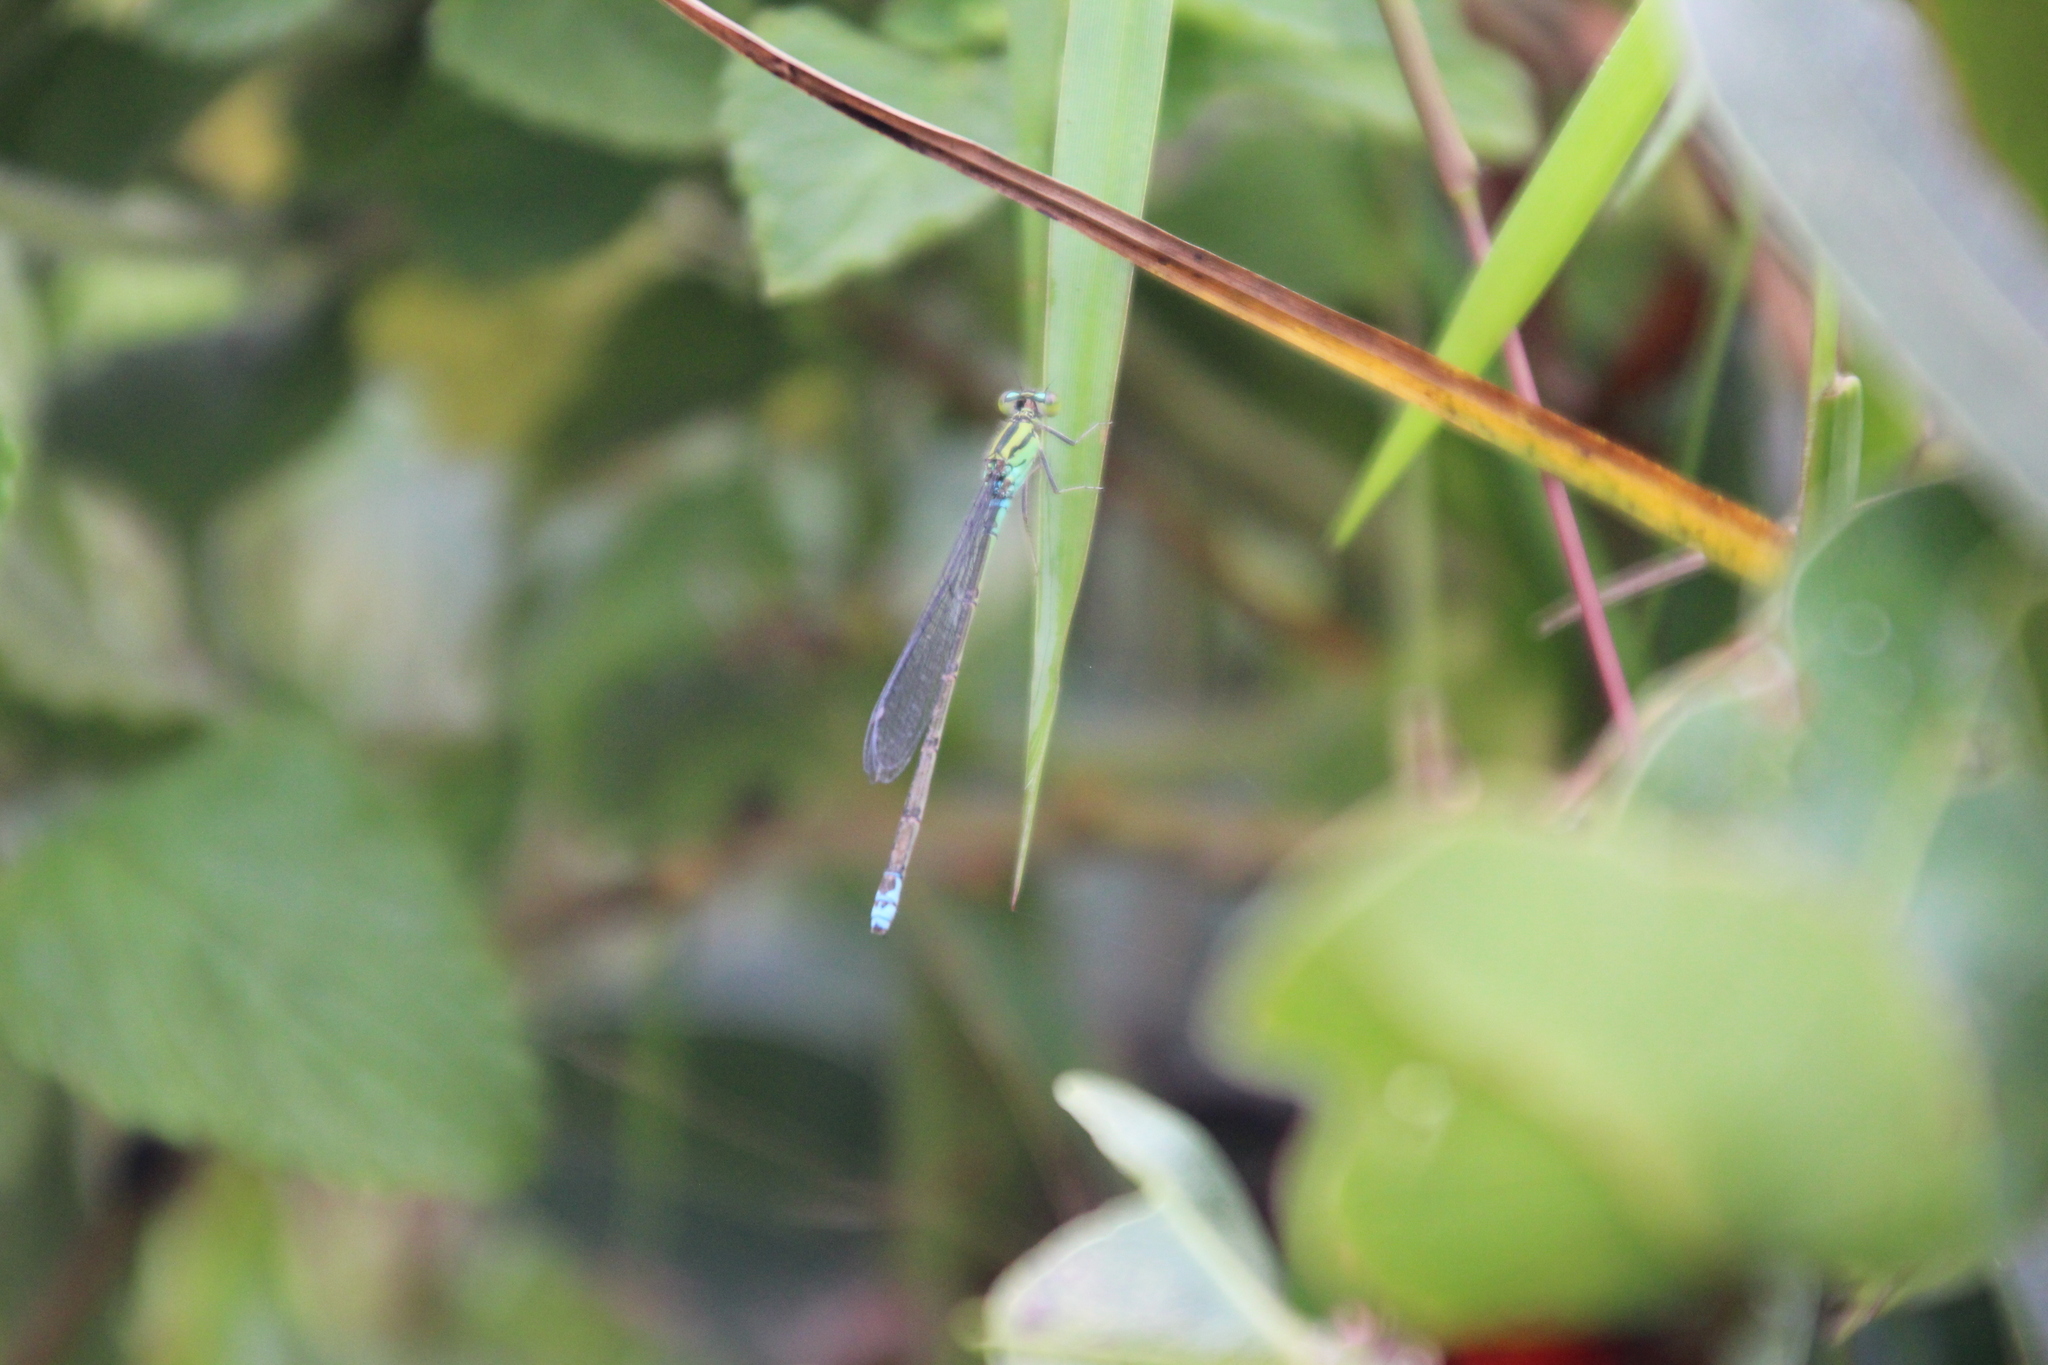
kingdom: Animalia
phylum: Arthropoda
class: Insecta
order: Odonata
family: Coenagrionidae
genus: Pseudagrion
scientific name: Pseudagrion nubicum
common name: Bluetail sprite
